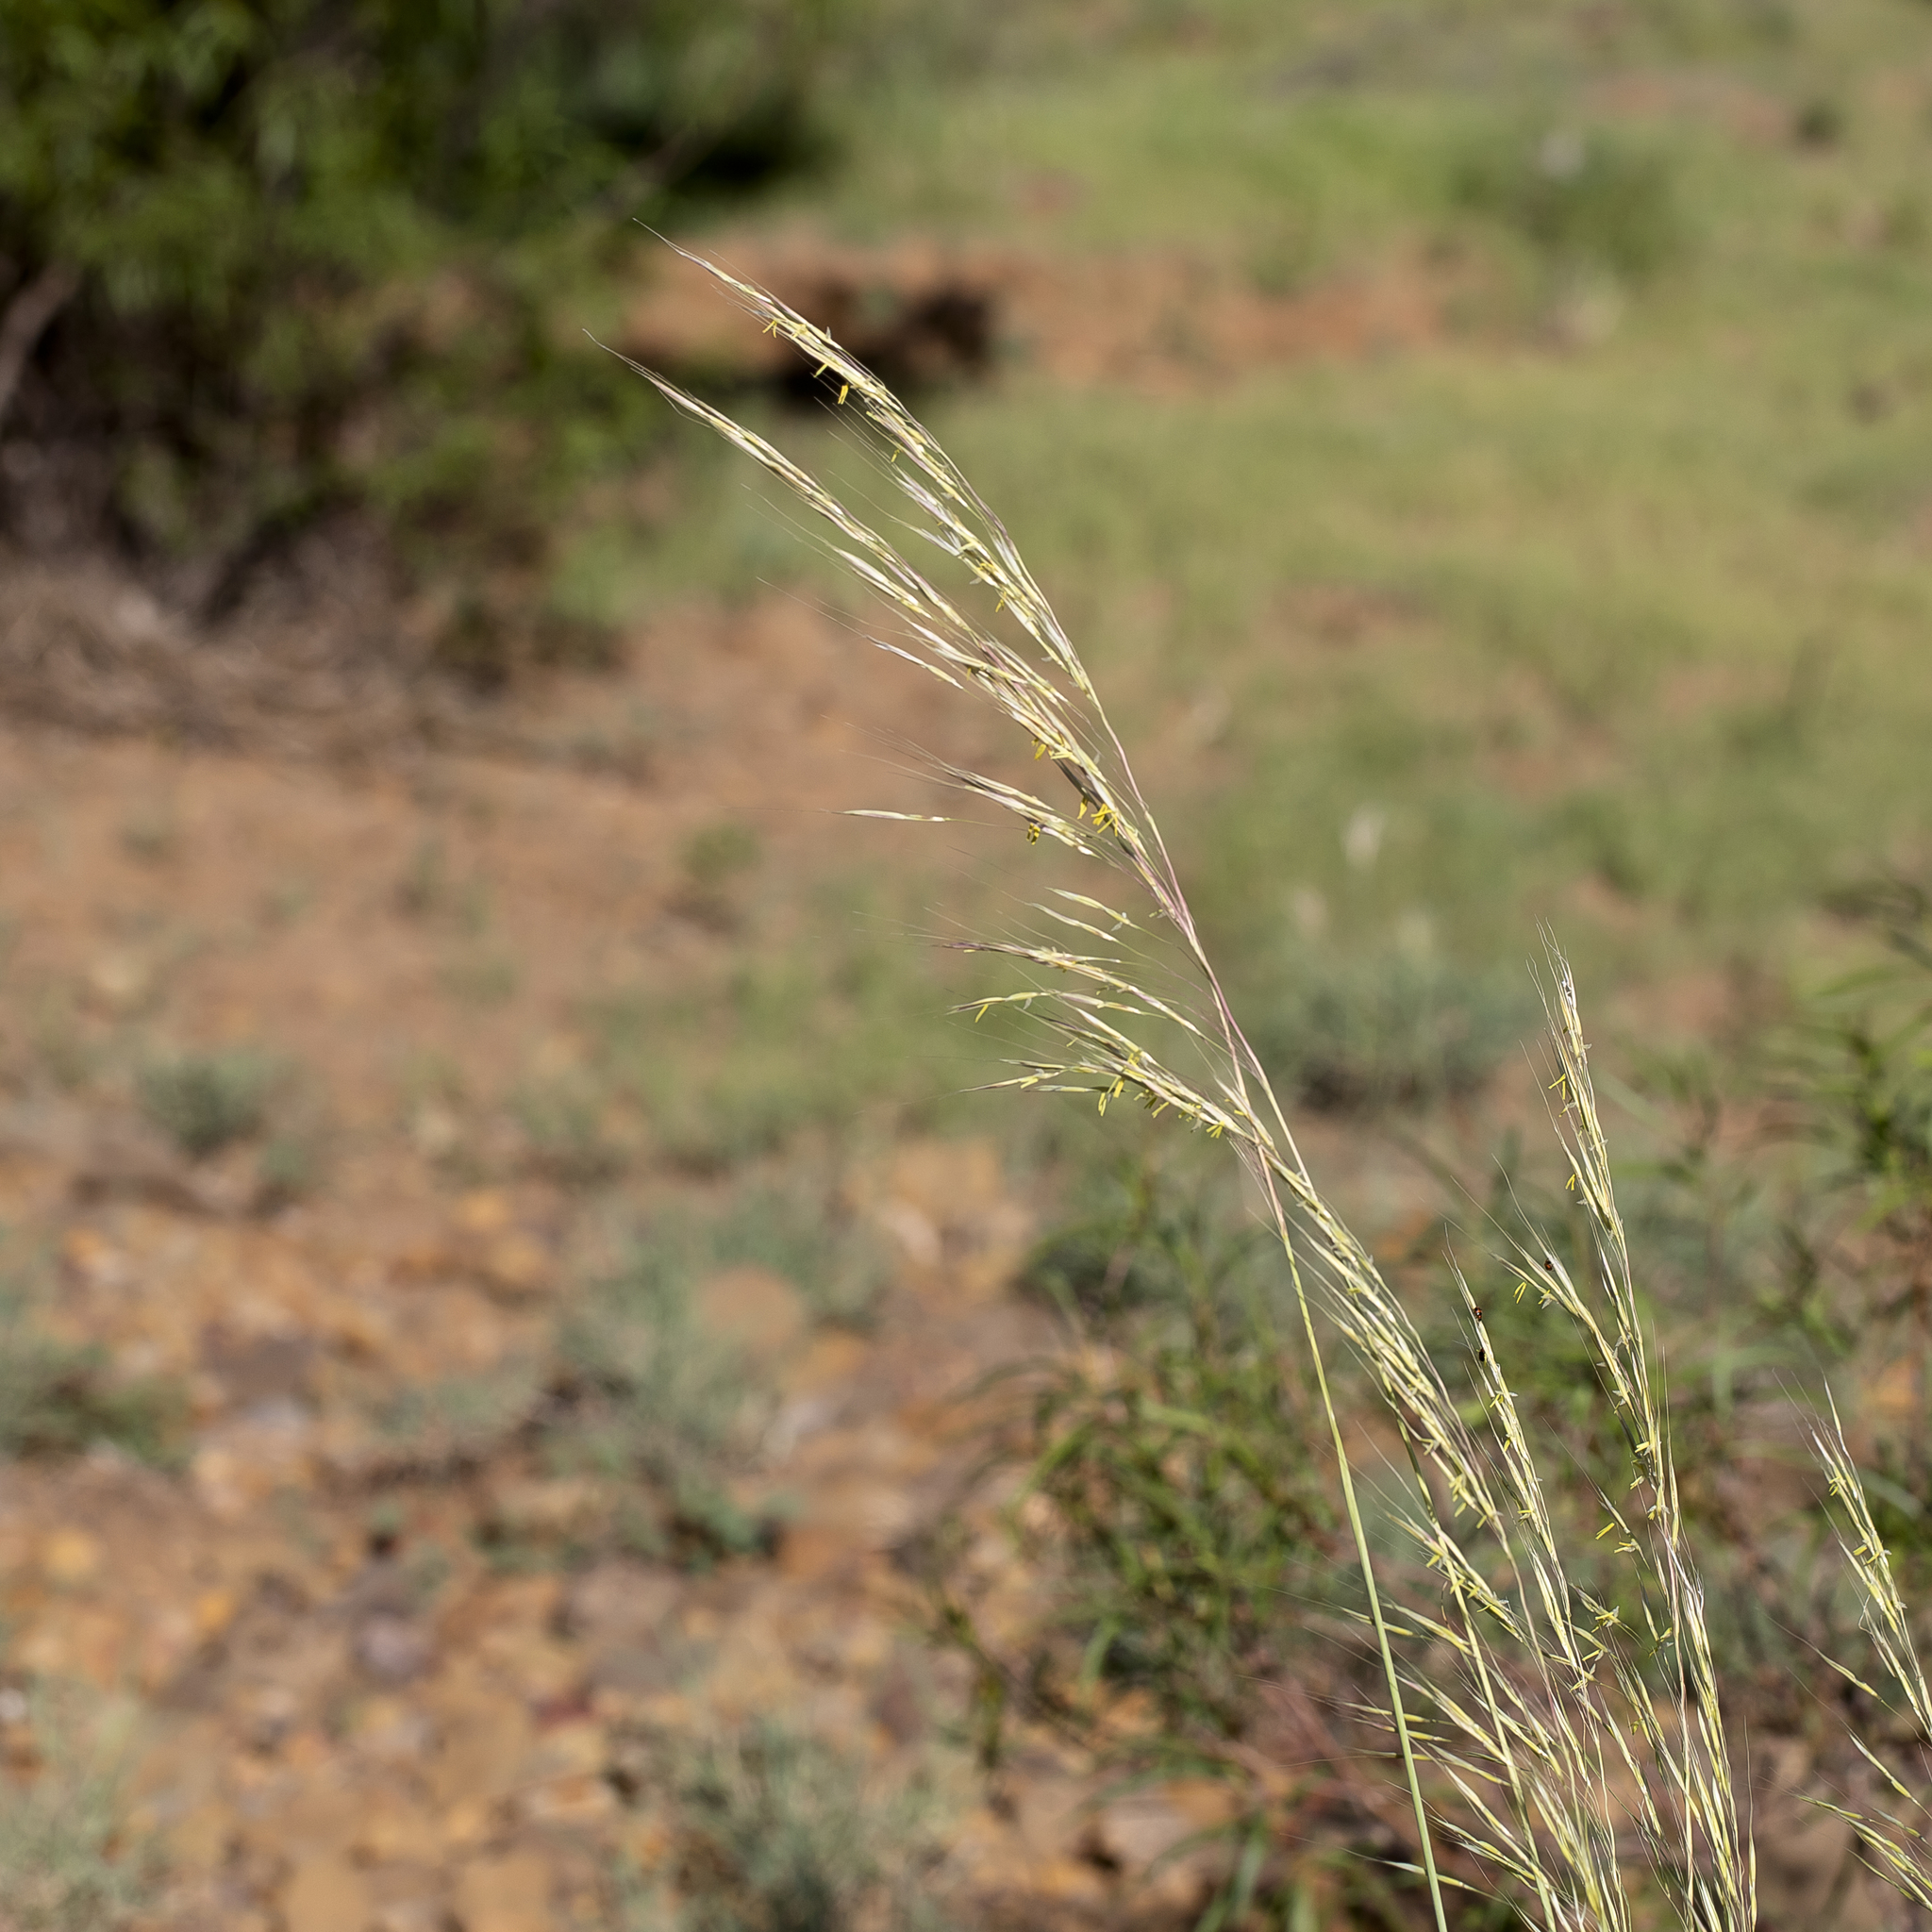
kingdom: Plantae
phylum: Tracheophyta
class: Liliopsida
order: Poales
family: Poaceae
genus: Chrysopogon
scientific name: Chrysopogon fallax
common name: Golden beard grass
